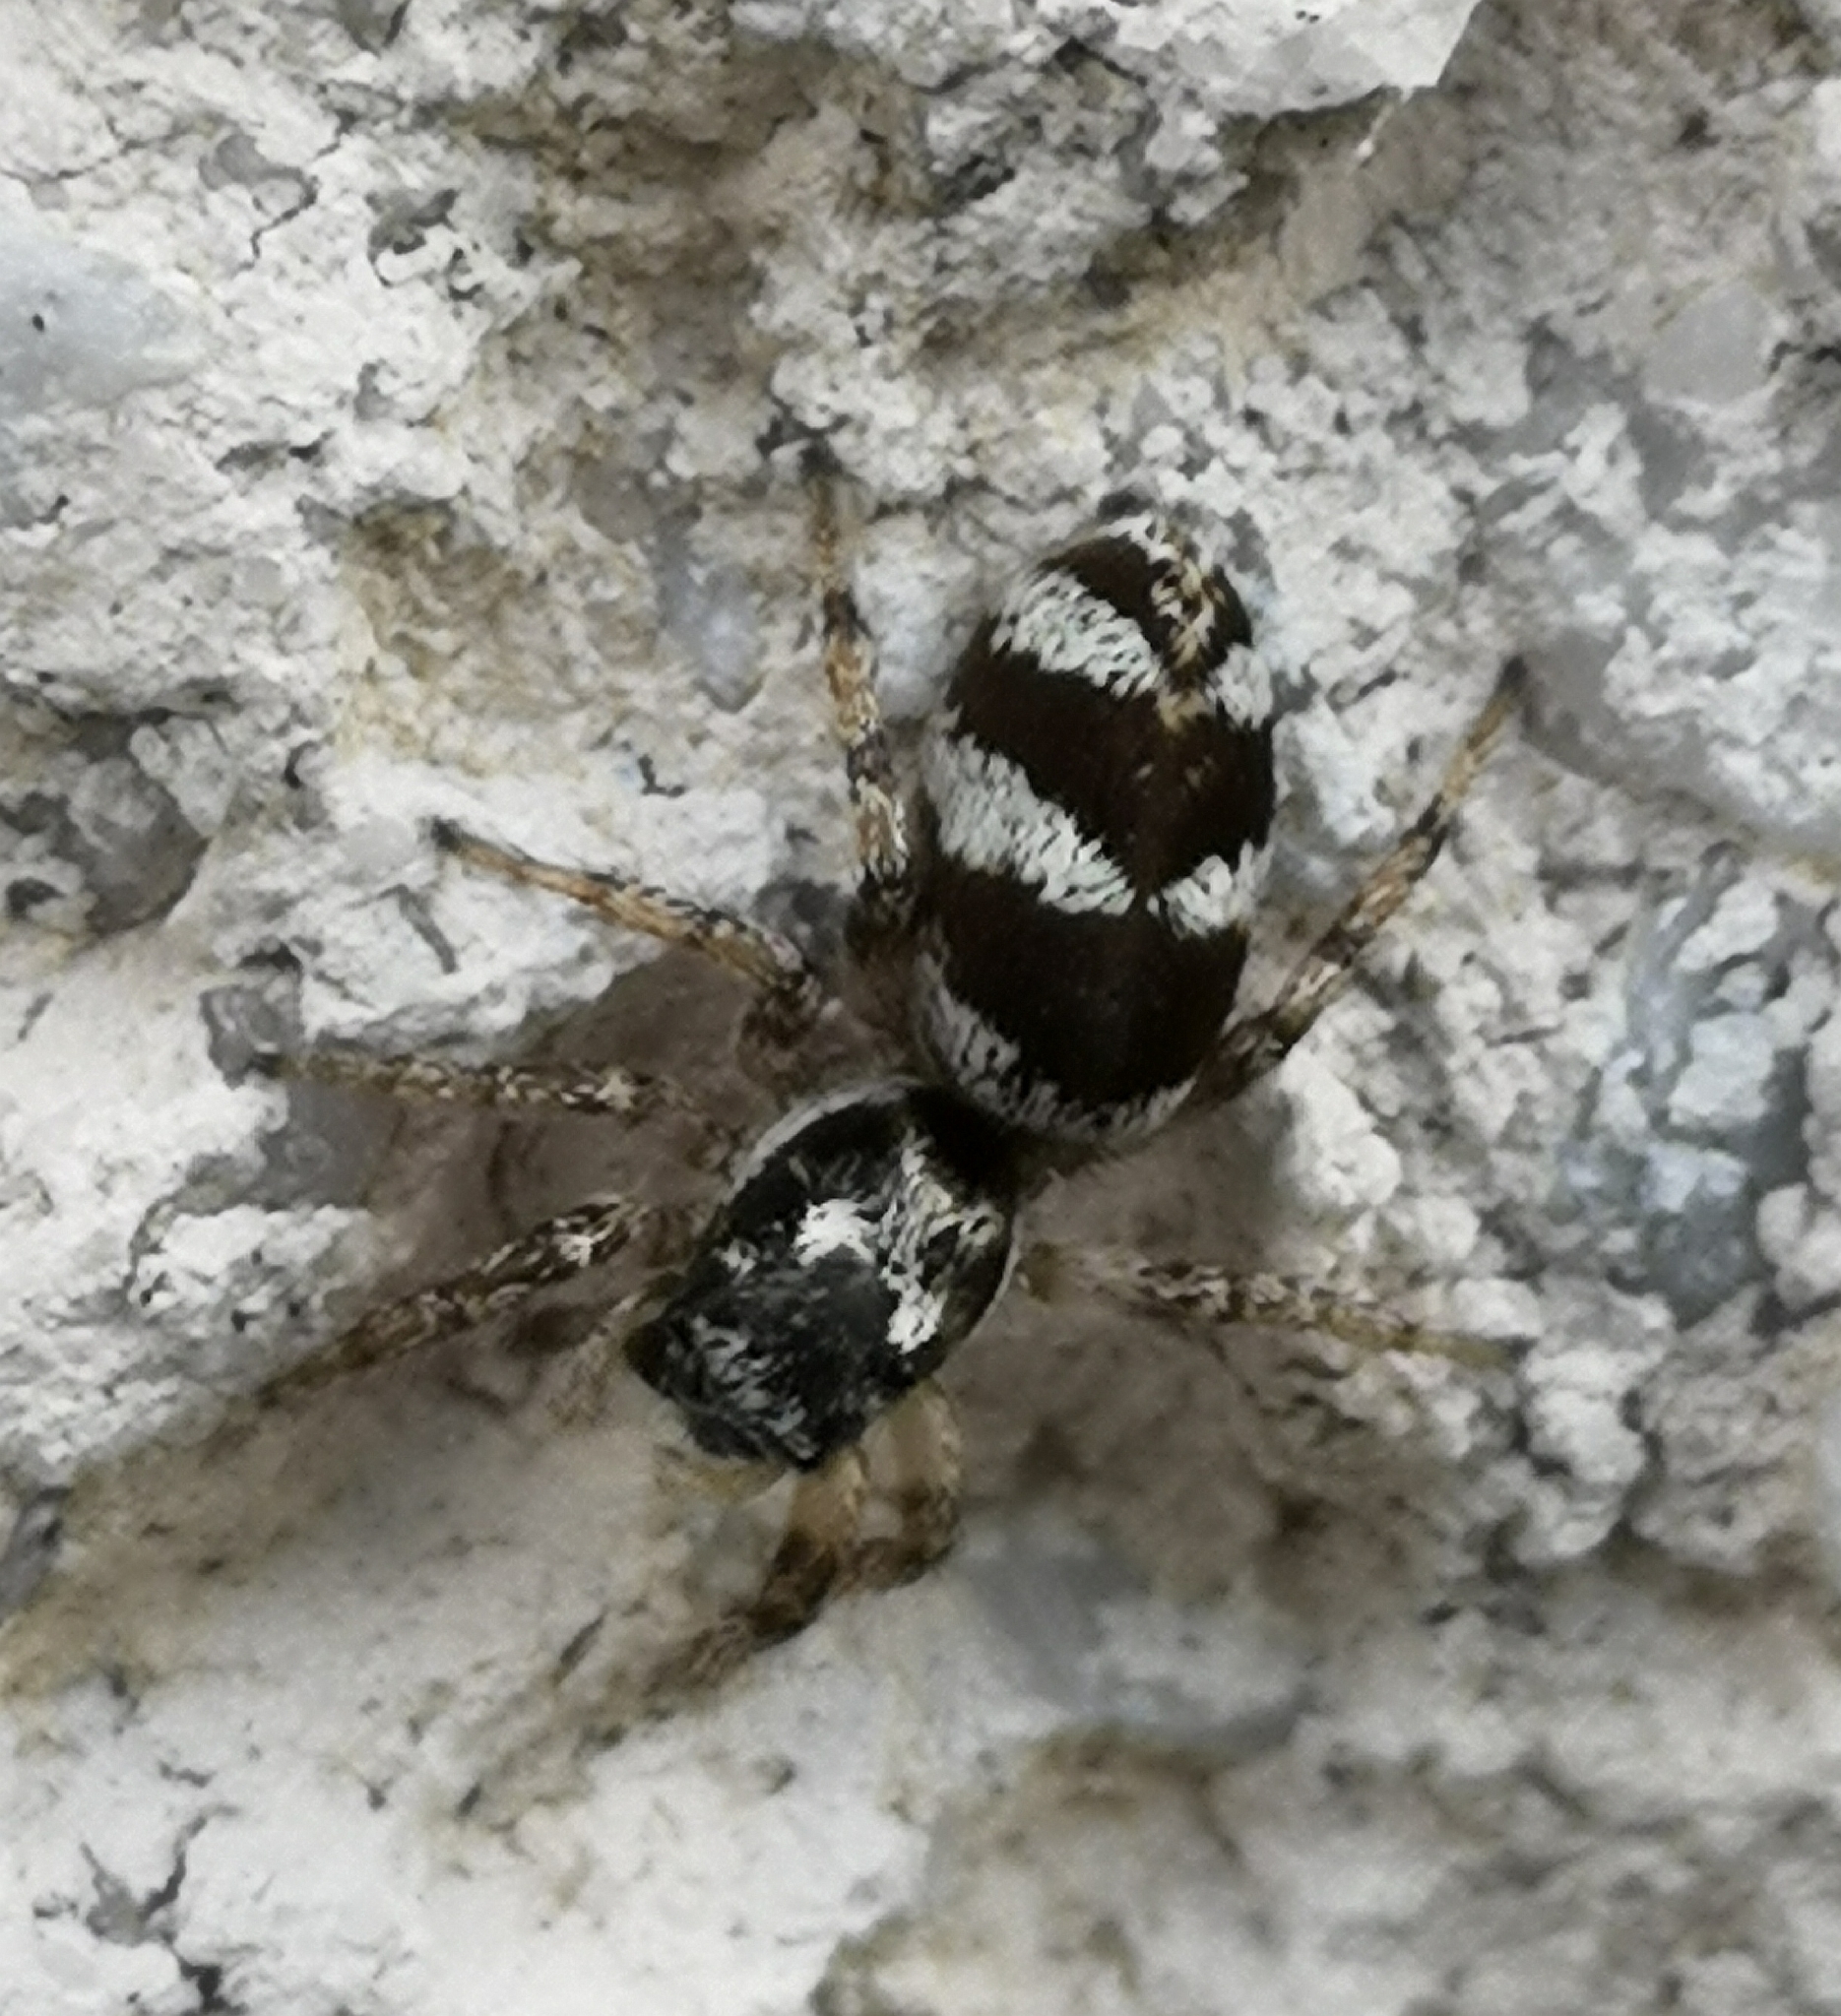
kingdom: Animalia
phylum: Arthropoda
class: Arachnida
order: Araneae
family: Salticidae
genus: Salticus
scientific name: Salticus scenicus
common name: Zebra jumper
